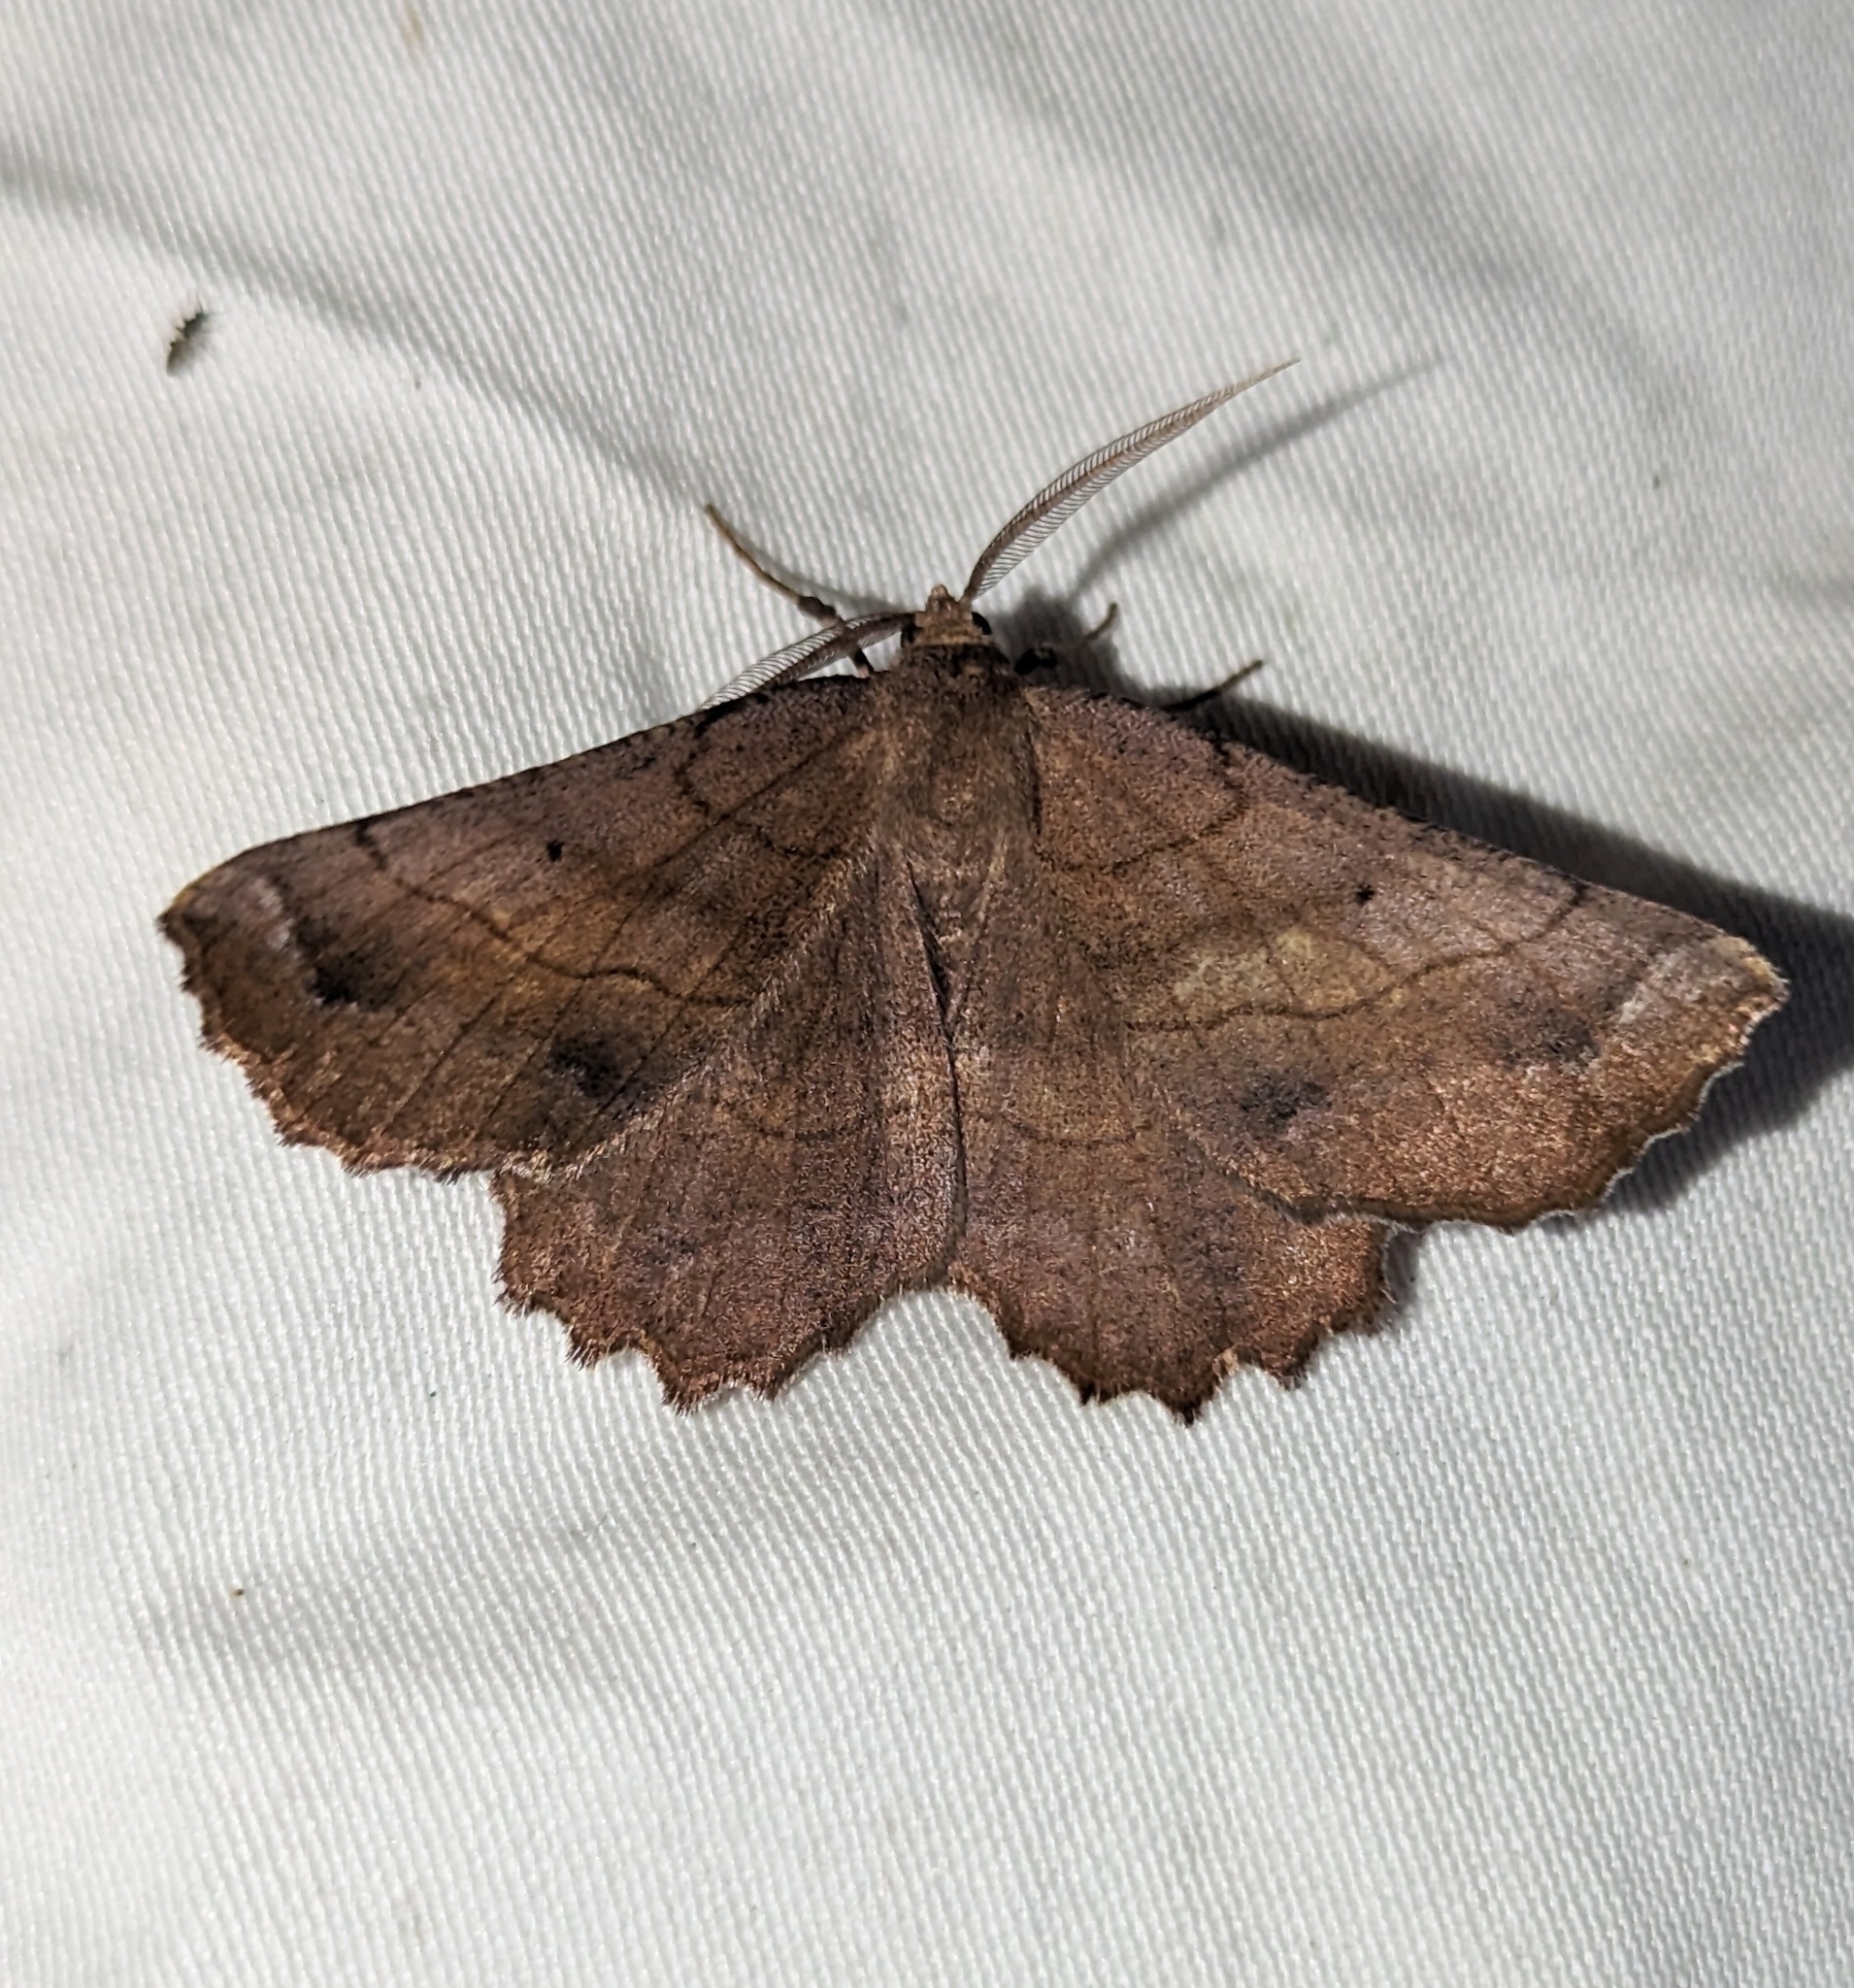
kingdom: Animalia
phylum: Arthropoda
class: Insecta
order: Lepidoptera
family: Geometridae
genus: Euchlaena
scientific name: Euchlaena johnsonaria
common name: Johnson's euchlaena
